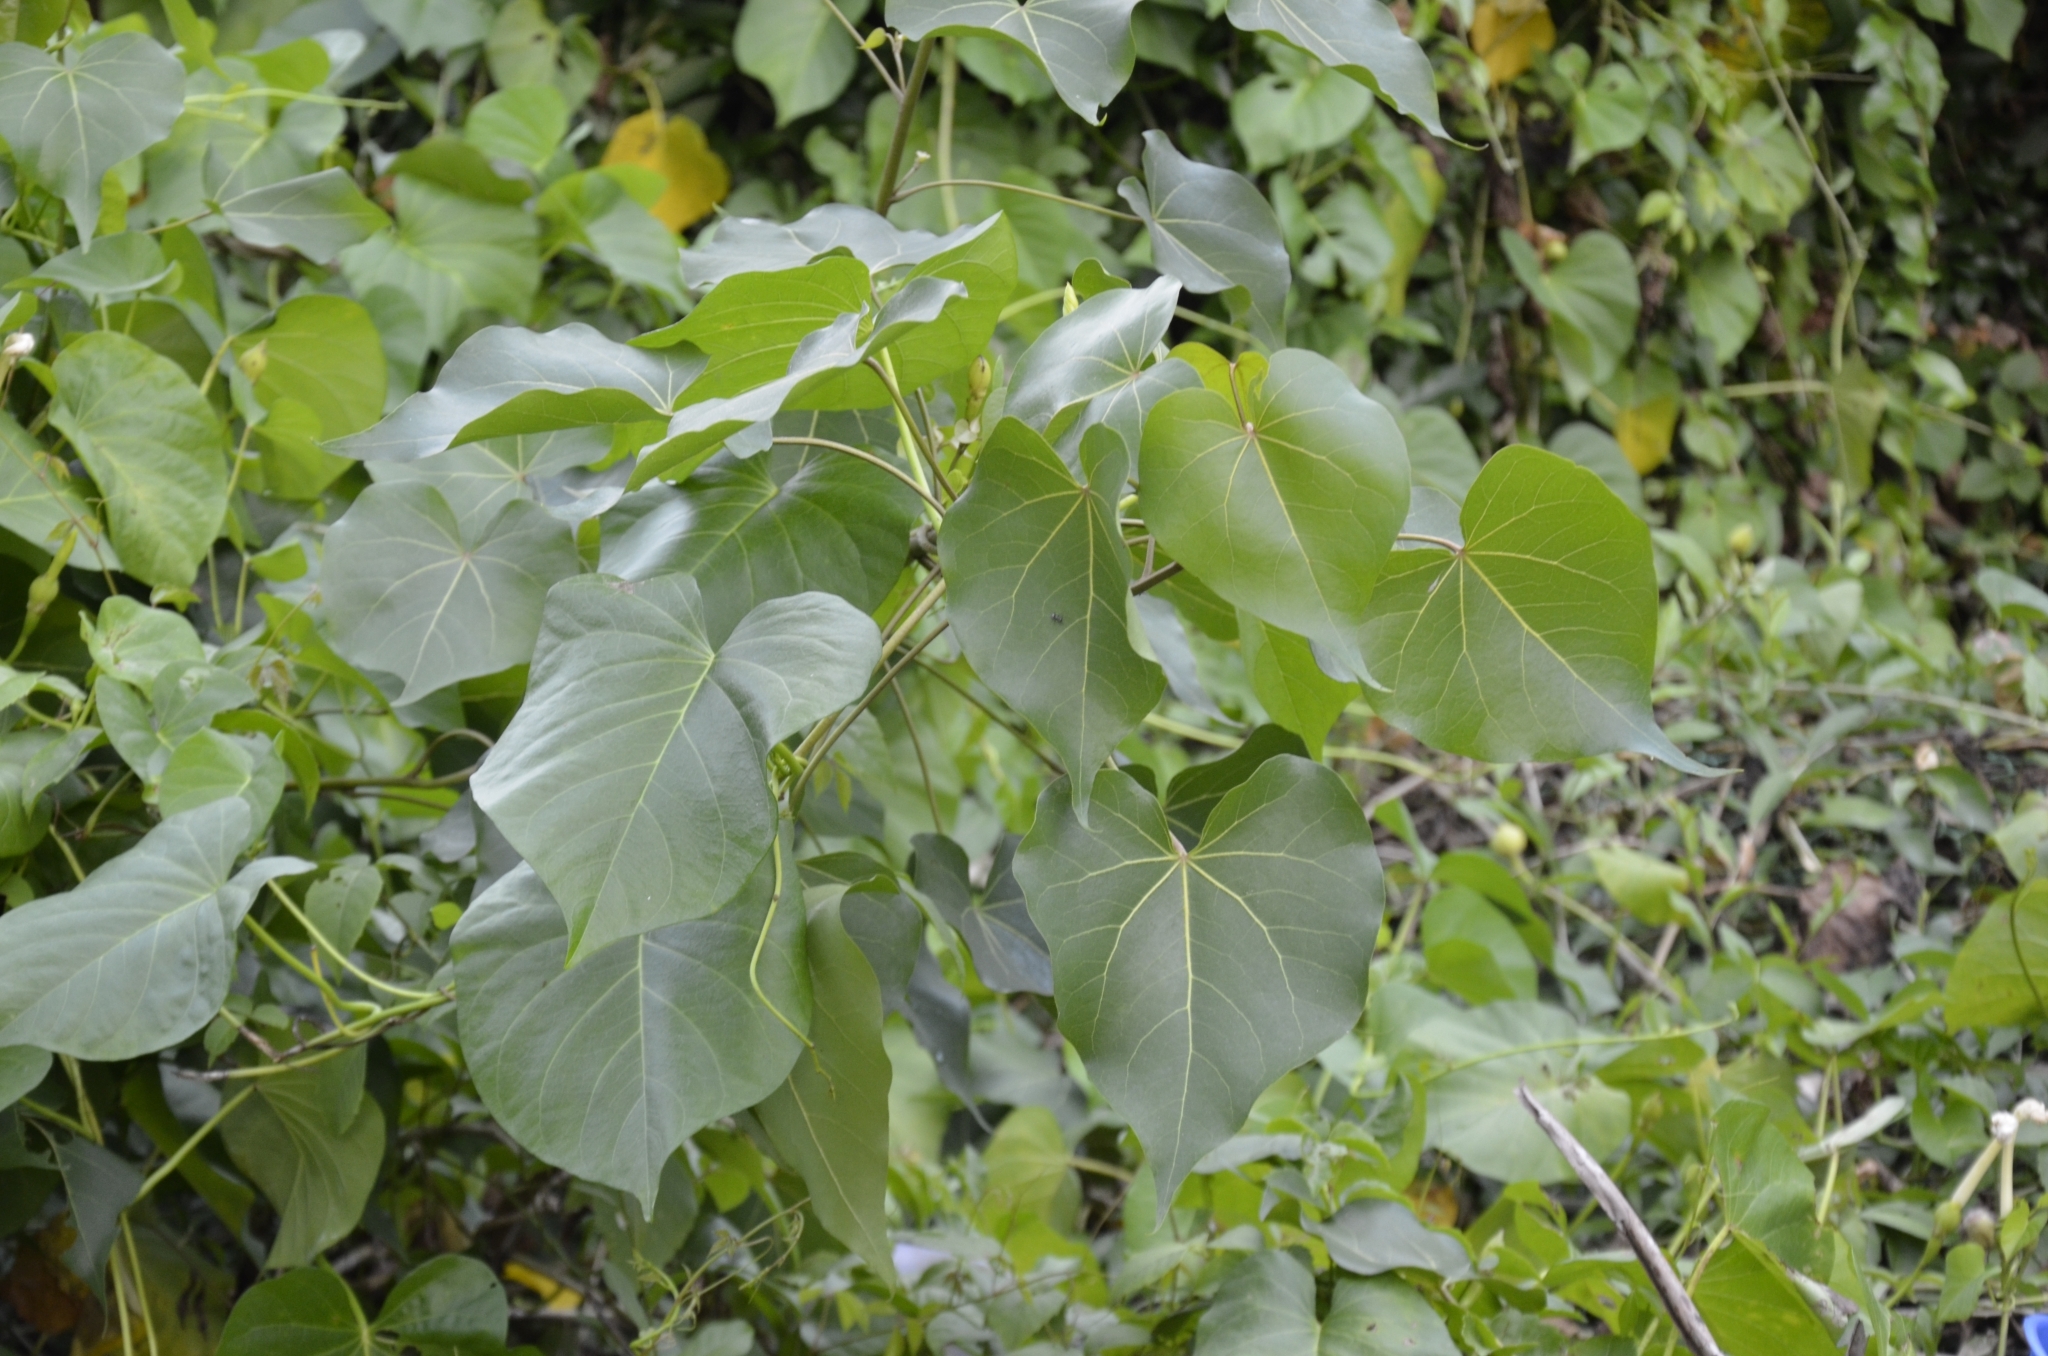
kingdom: Plantae
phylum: Tracheophyta
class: Magnoliopsida
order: Malvales
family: Malvaceae
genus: Thespesia
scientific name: Thespesia populnea
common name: Seaside mahoe
